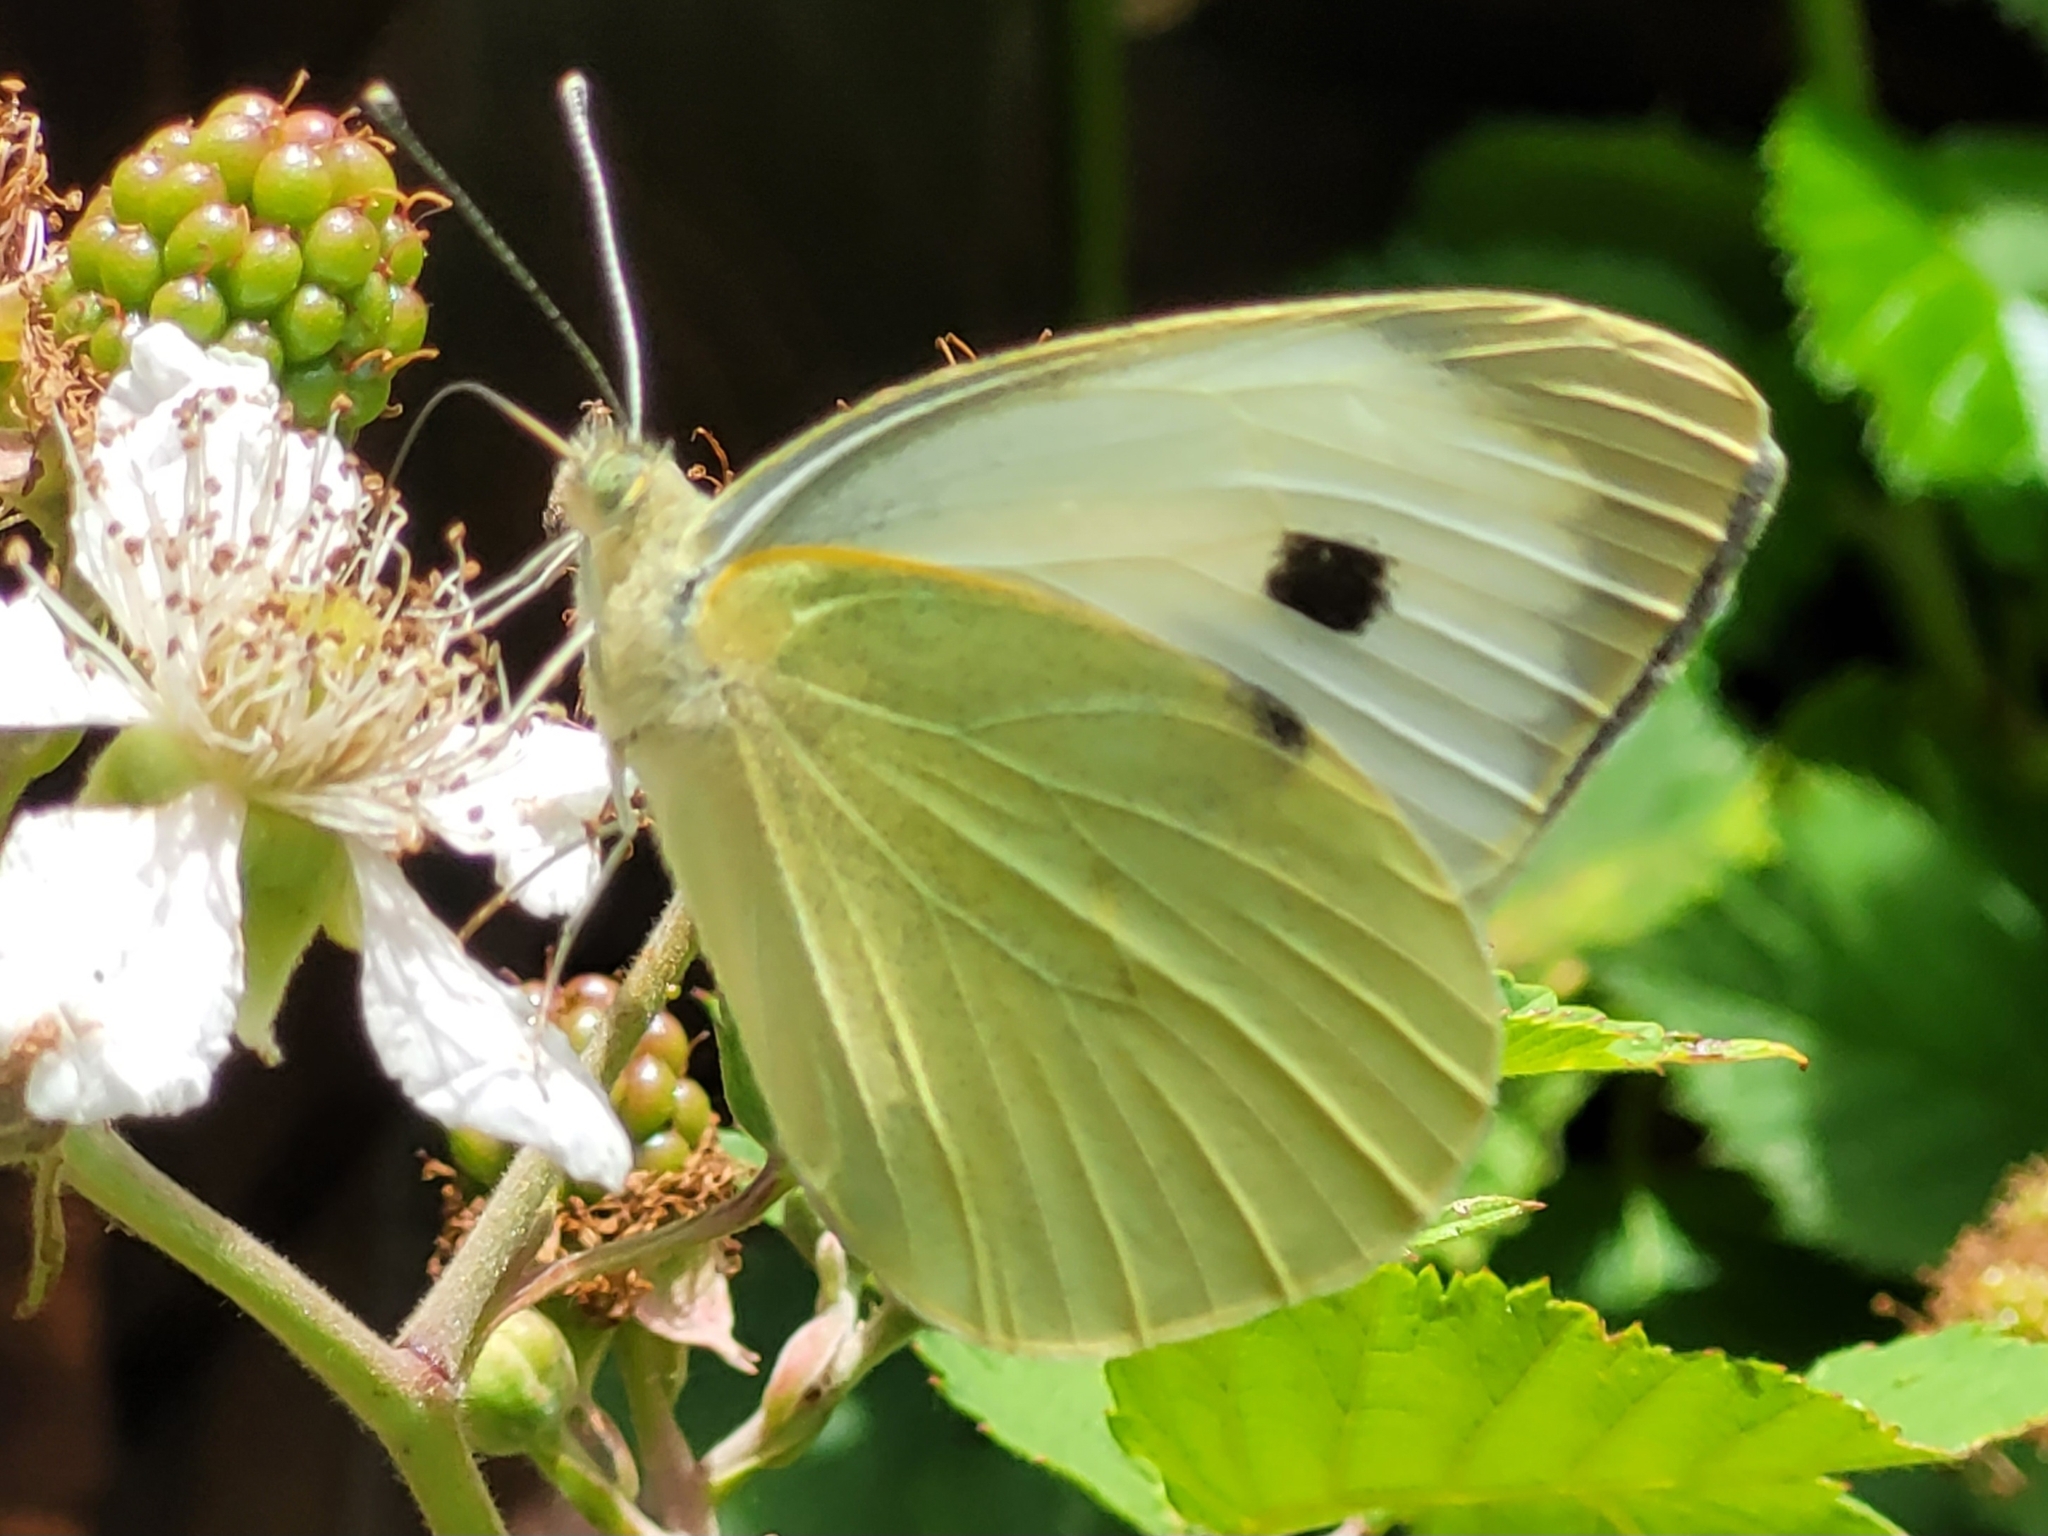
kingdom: Animalia
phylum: Arthropoda
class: Insecta
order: Lepidoptera
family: Pieridae
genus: Pieris
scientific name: Pieris brassicae
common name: Large white
